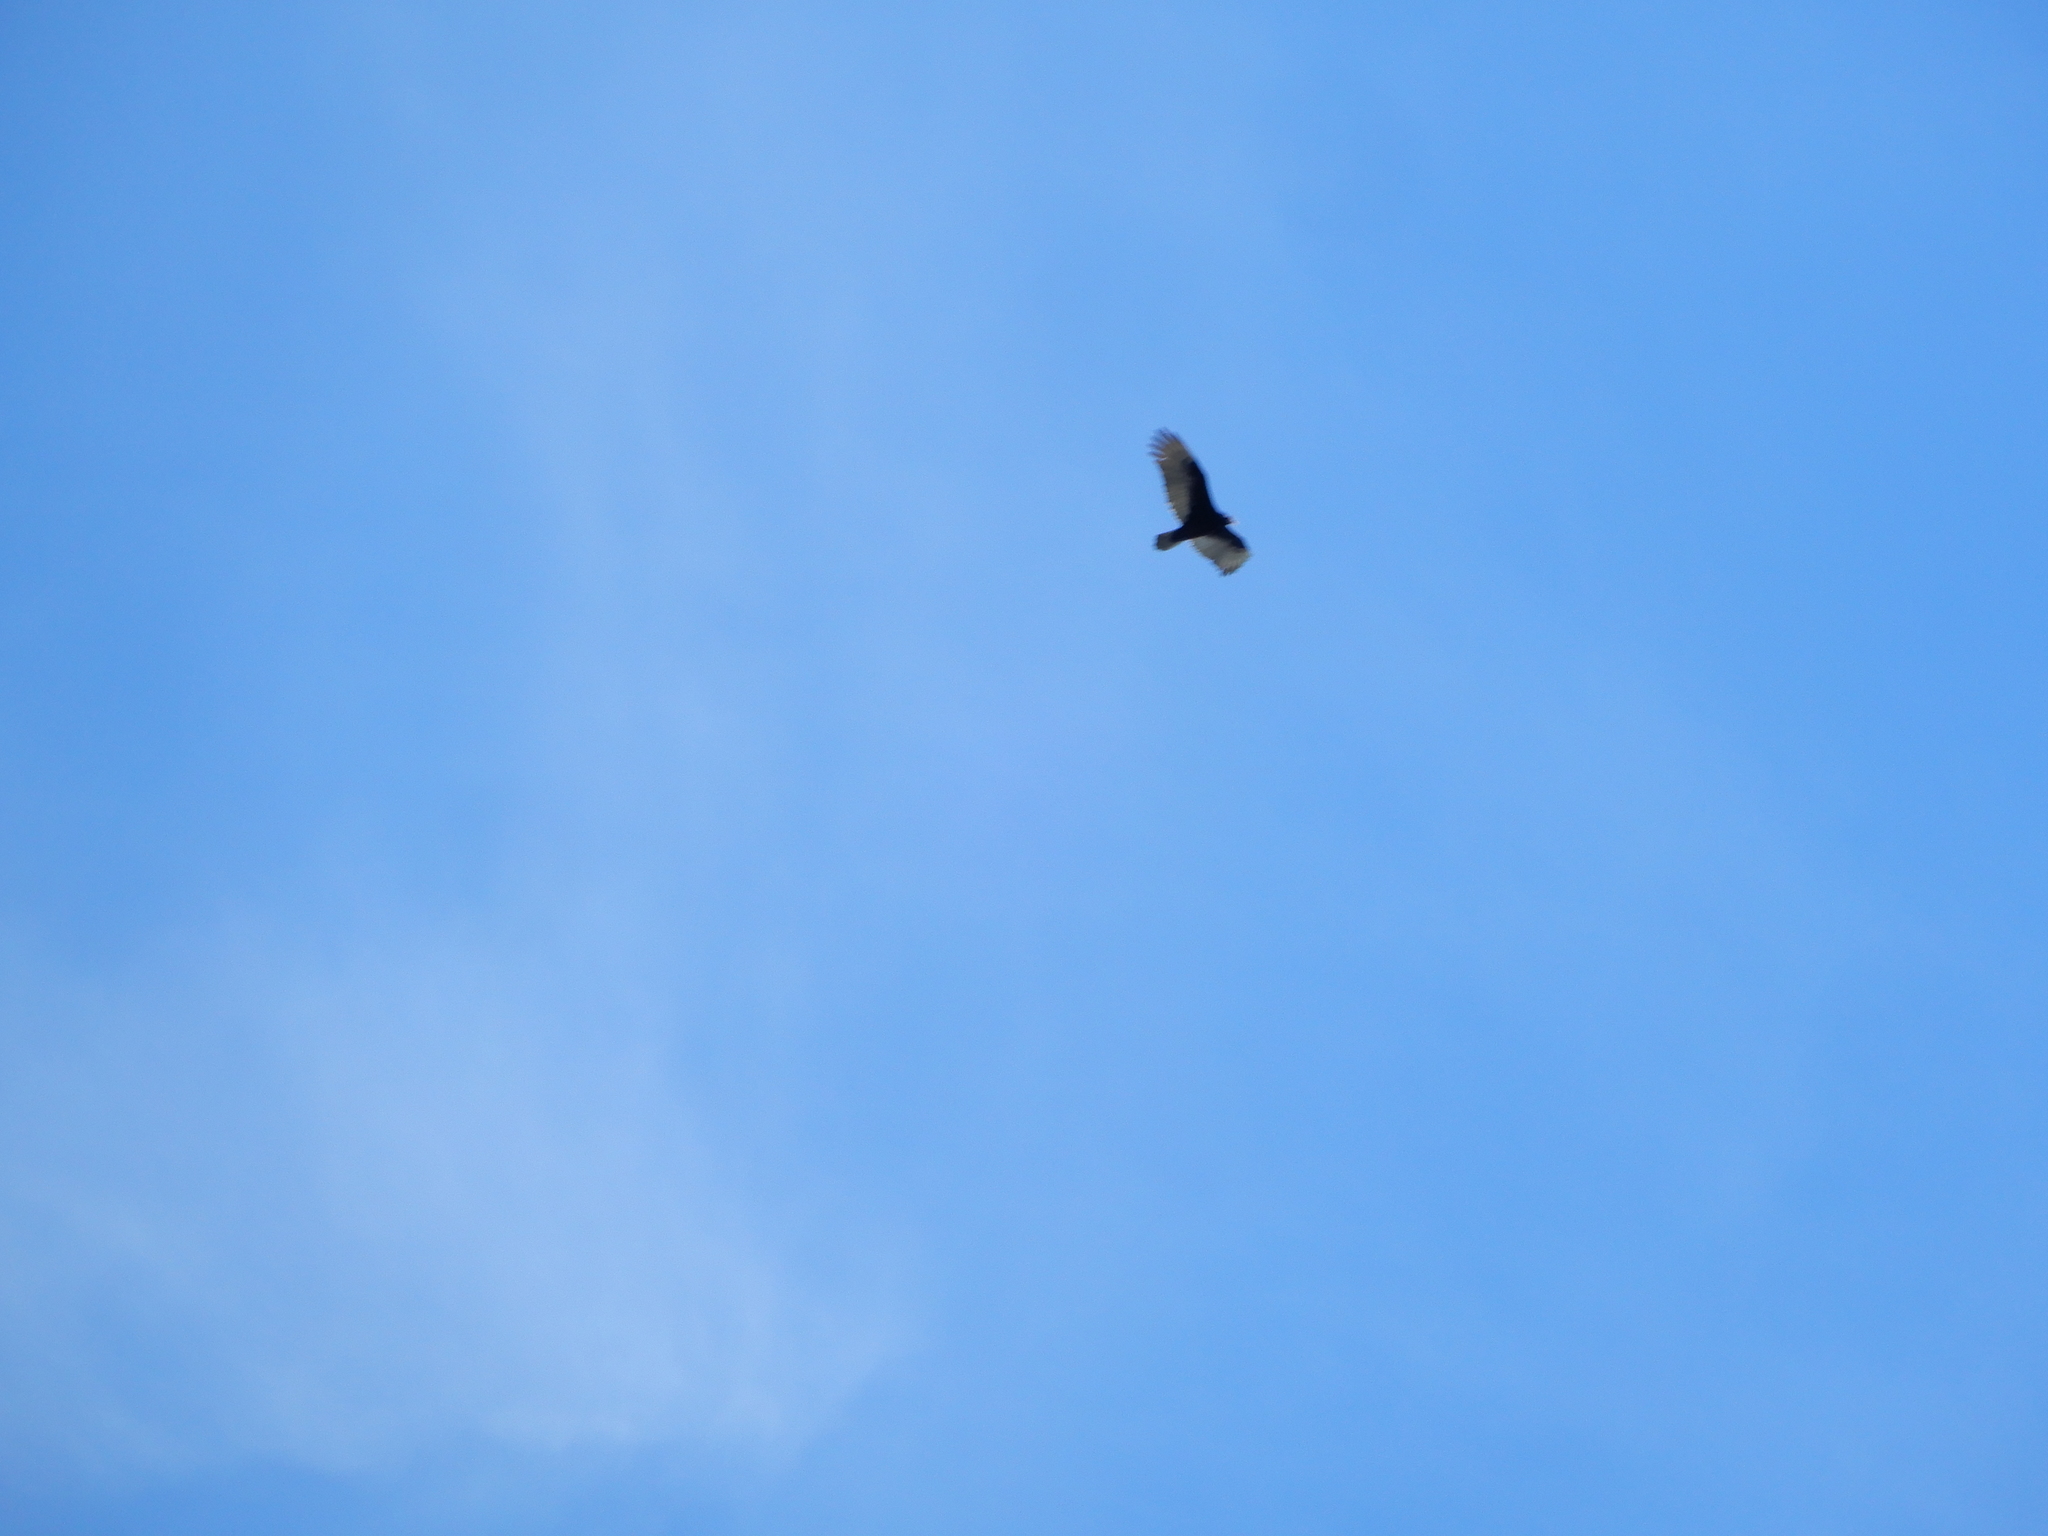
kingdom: Animalia
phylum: Chordata
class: Aves
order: Accipitriformes
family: Cathartidae
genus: Cathartes
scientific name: Cathartes aura
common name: Turkey vulture
